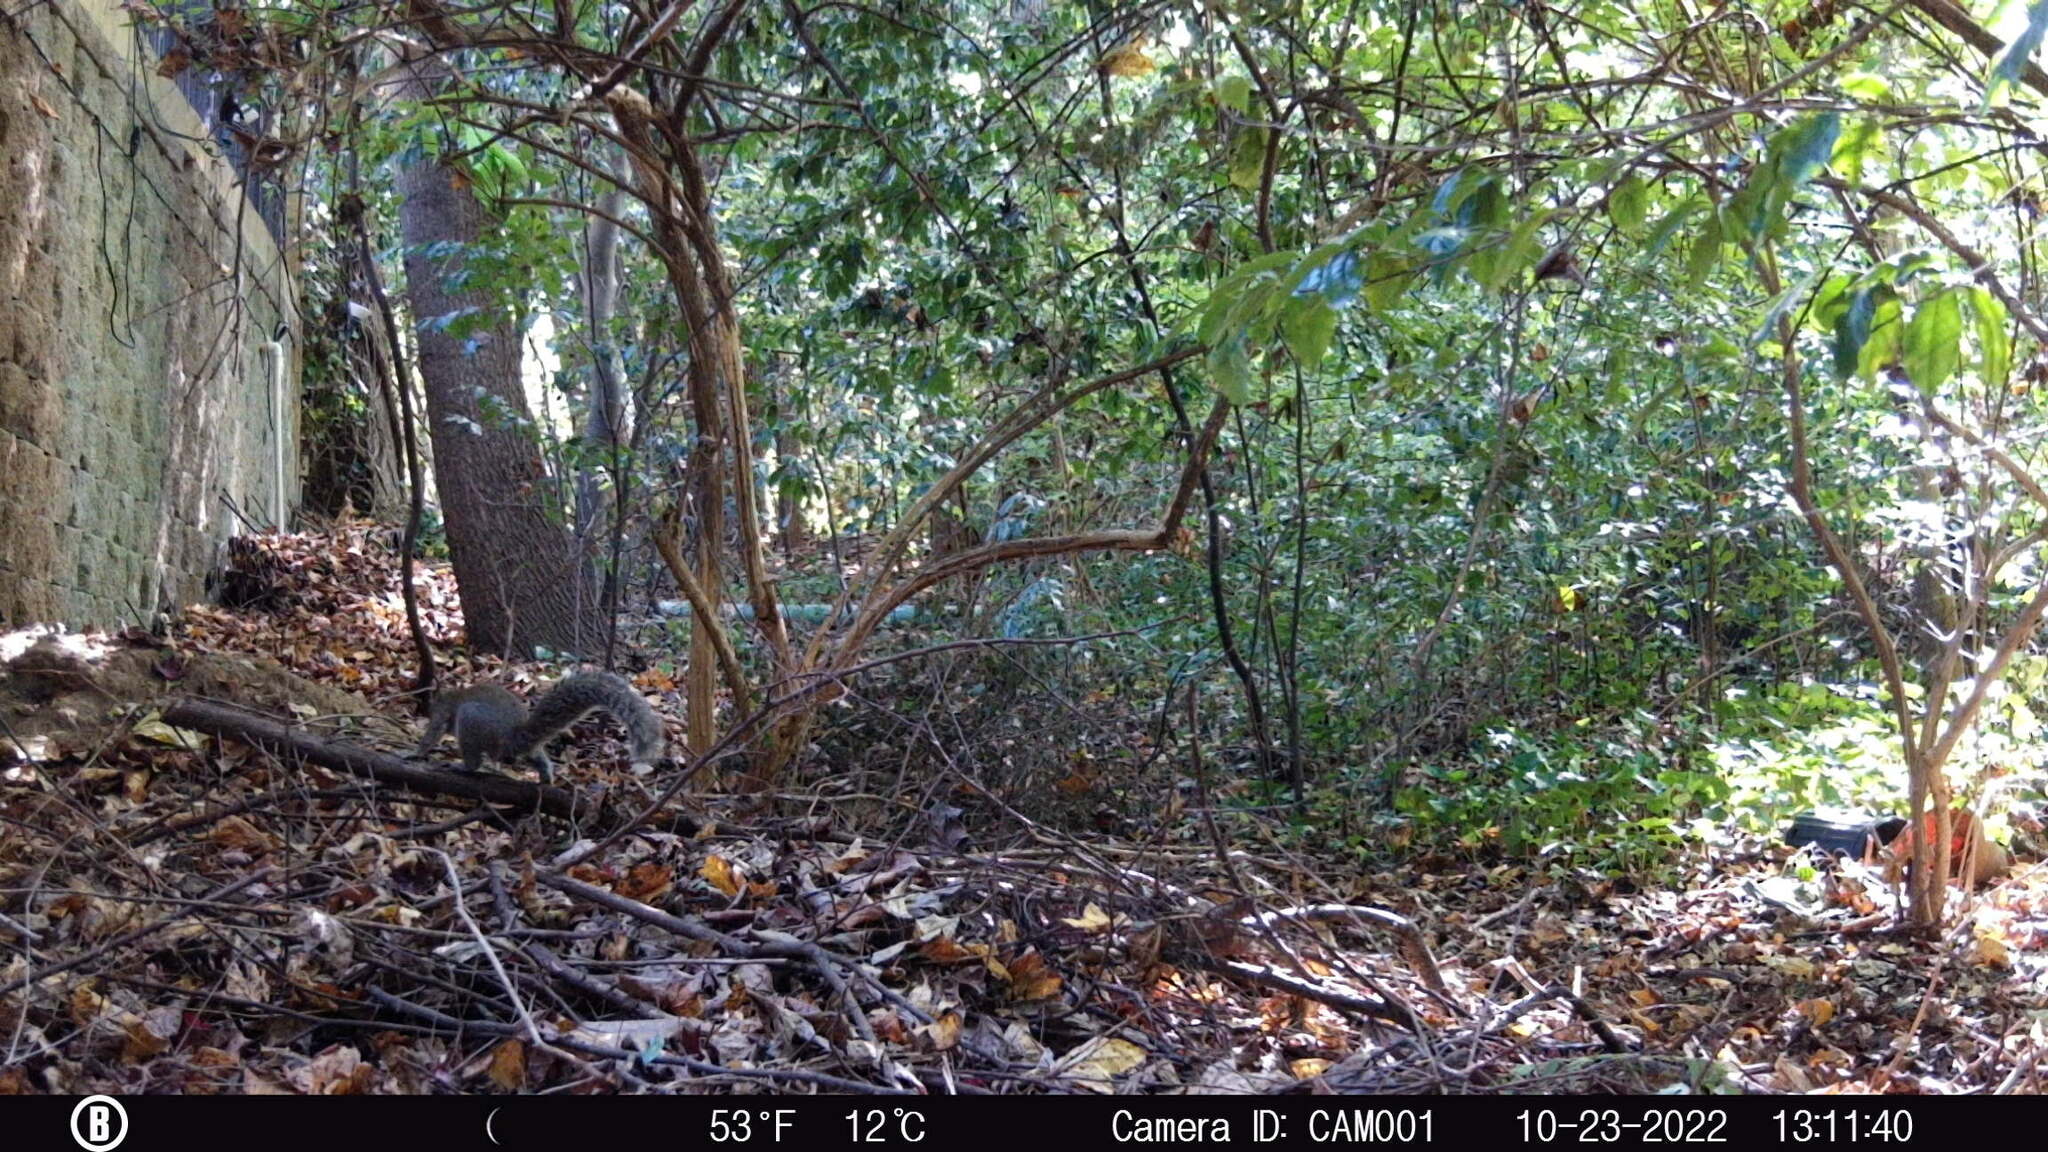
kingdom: Animalia
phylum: Chordata
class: Mammalia
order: Rodentia
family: Sciuridae
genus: Sciurus
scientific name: Sciurus carolinensis
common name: Eastern gray squirrel
